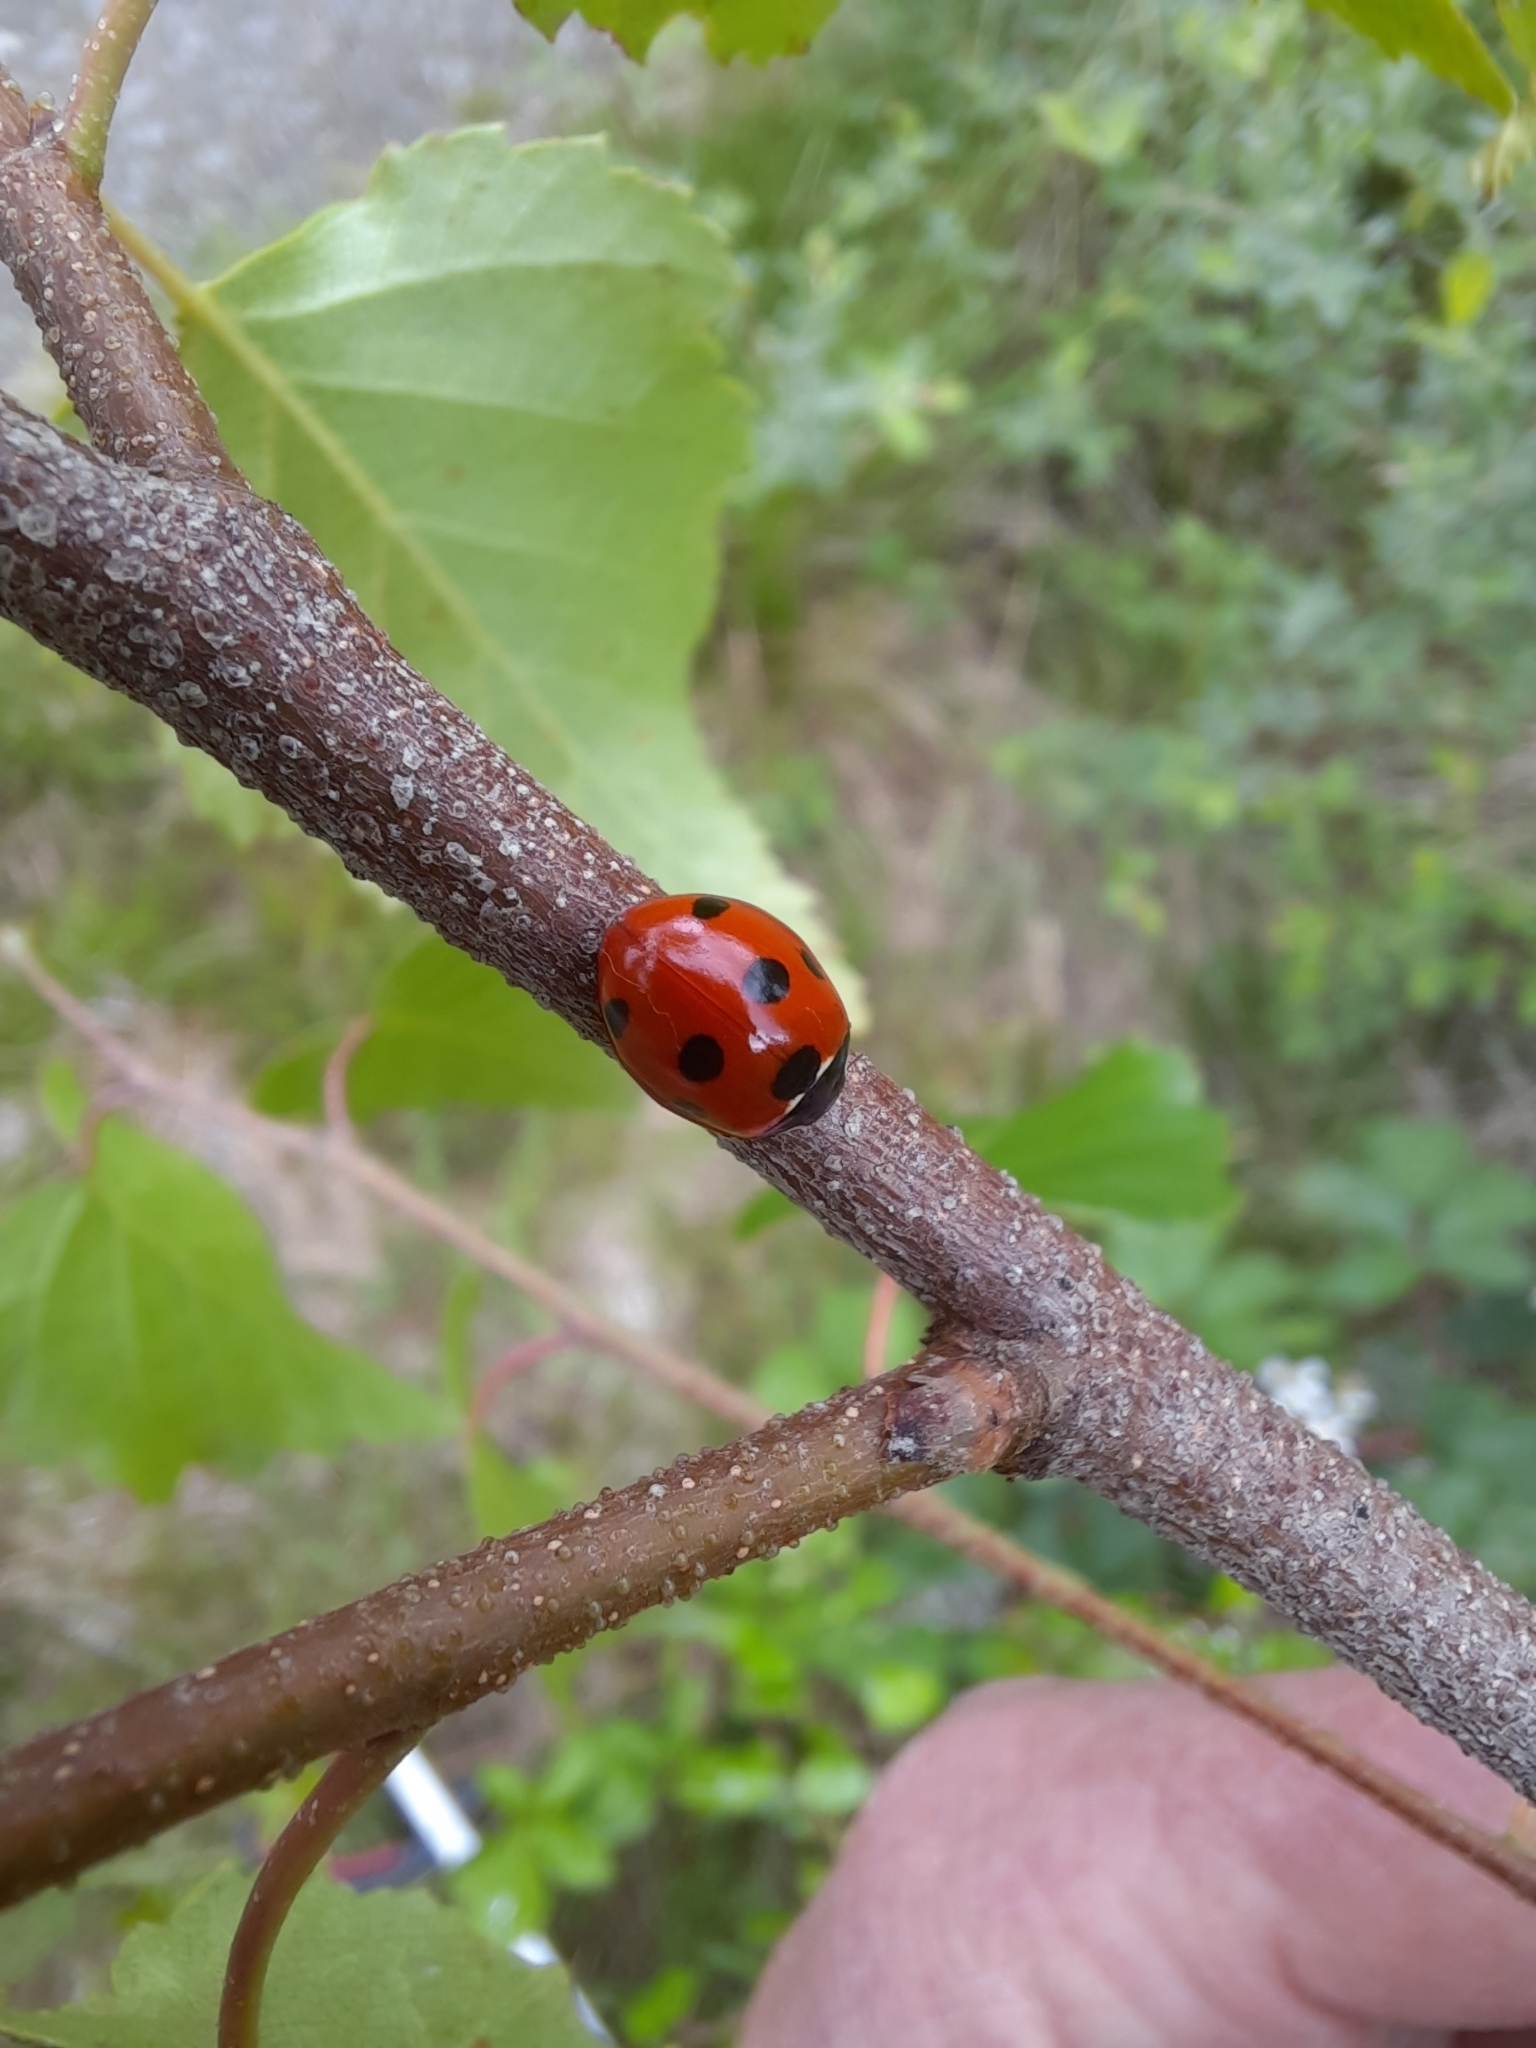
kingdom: Animalia
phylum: Arthropoda
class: Insecta
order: Coleoptera
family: Coccinellidae
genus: Coccinella
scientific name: Coccinella septempunctata
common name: Sevenspotted lady beetle
